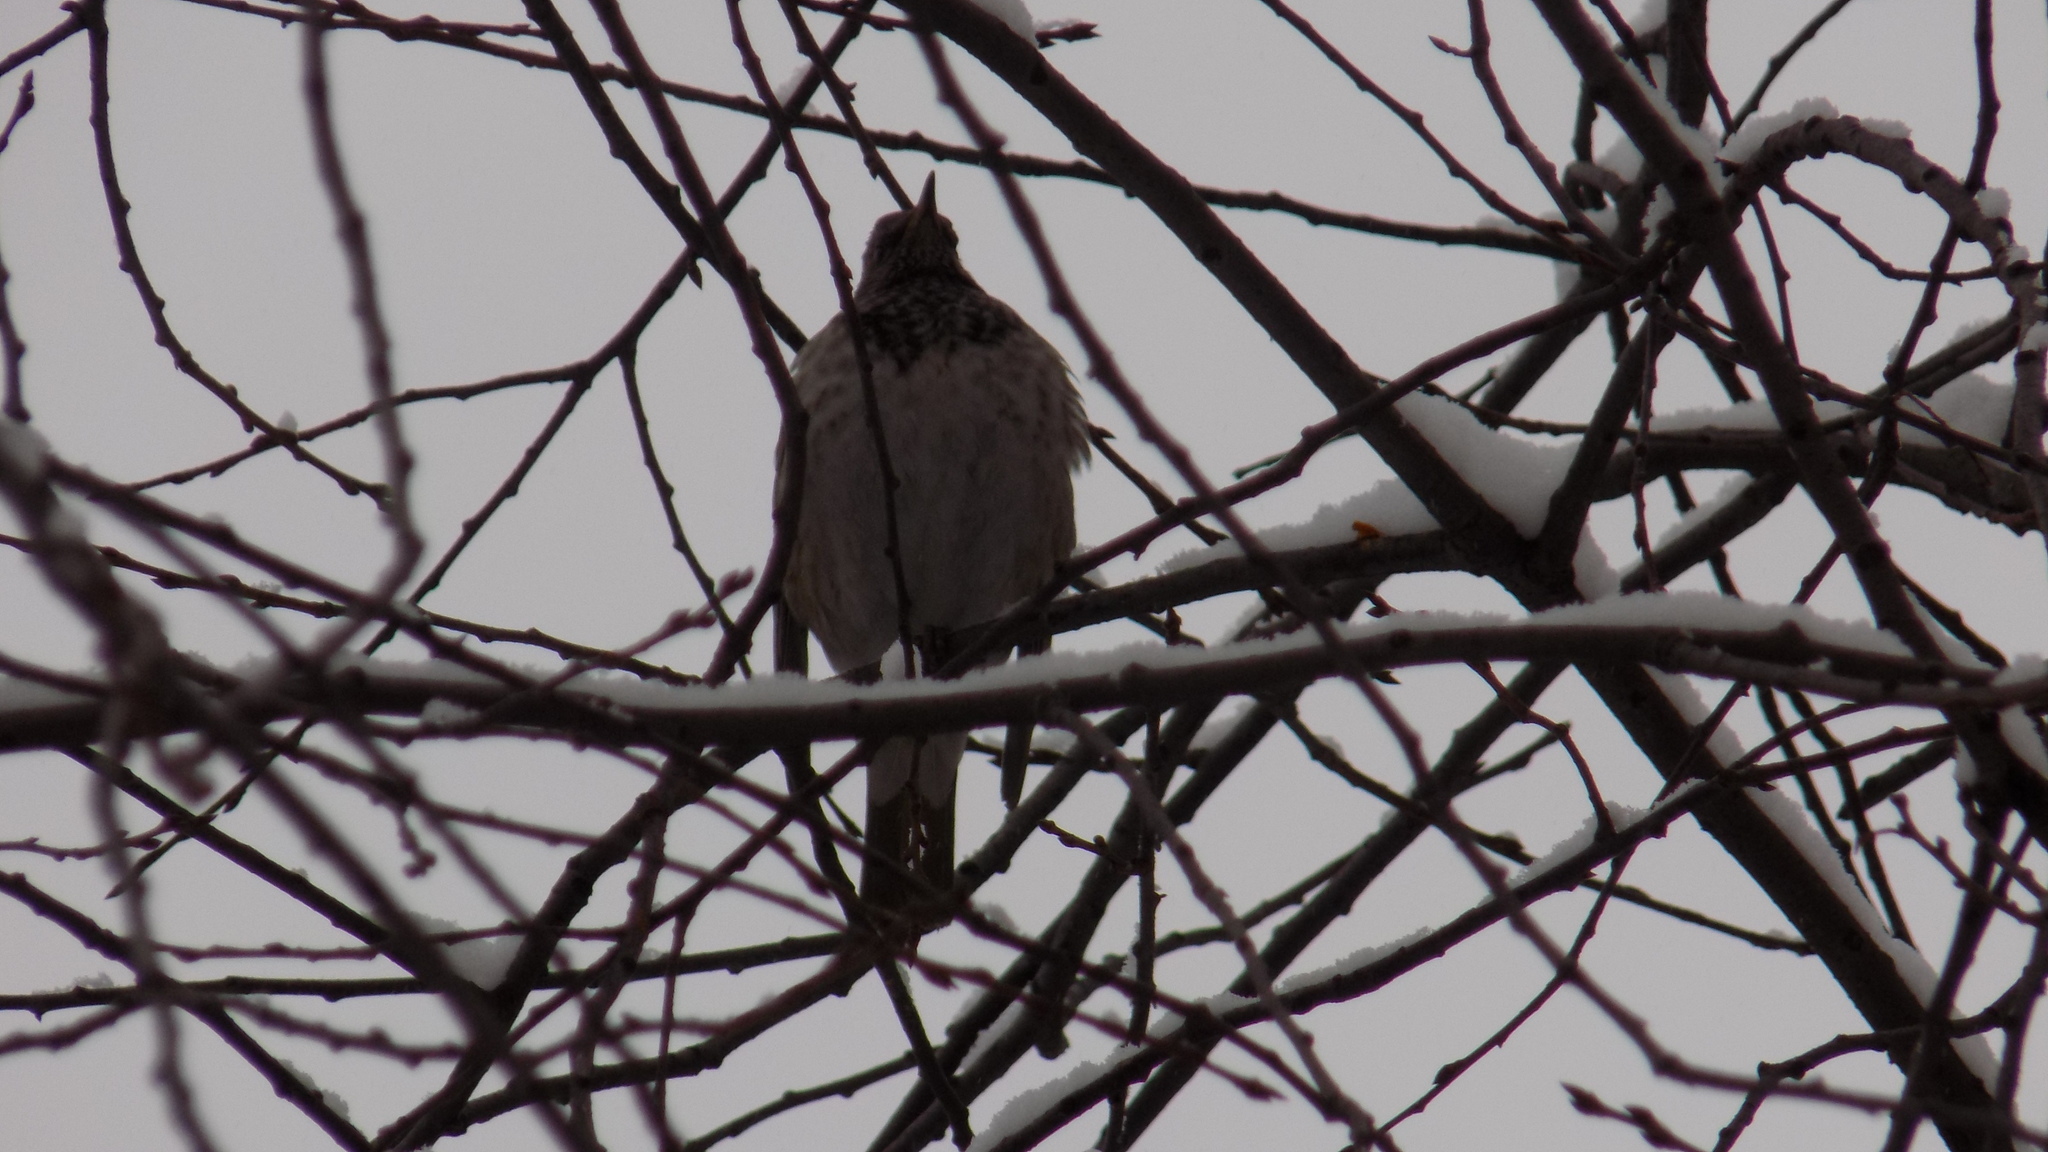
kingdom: Animalia
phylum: Chordata
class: Aves
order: Passeriformes
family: Turdidae
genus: Turdus
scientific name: Turdus atrogularis
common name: Black-throated thrush
